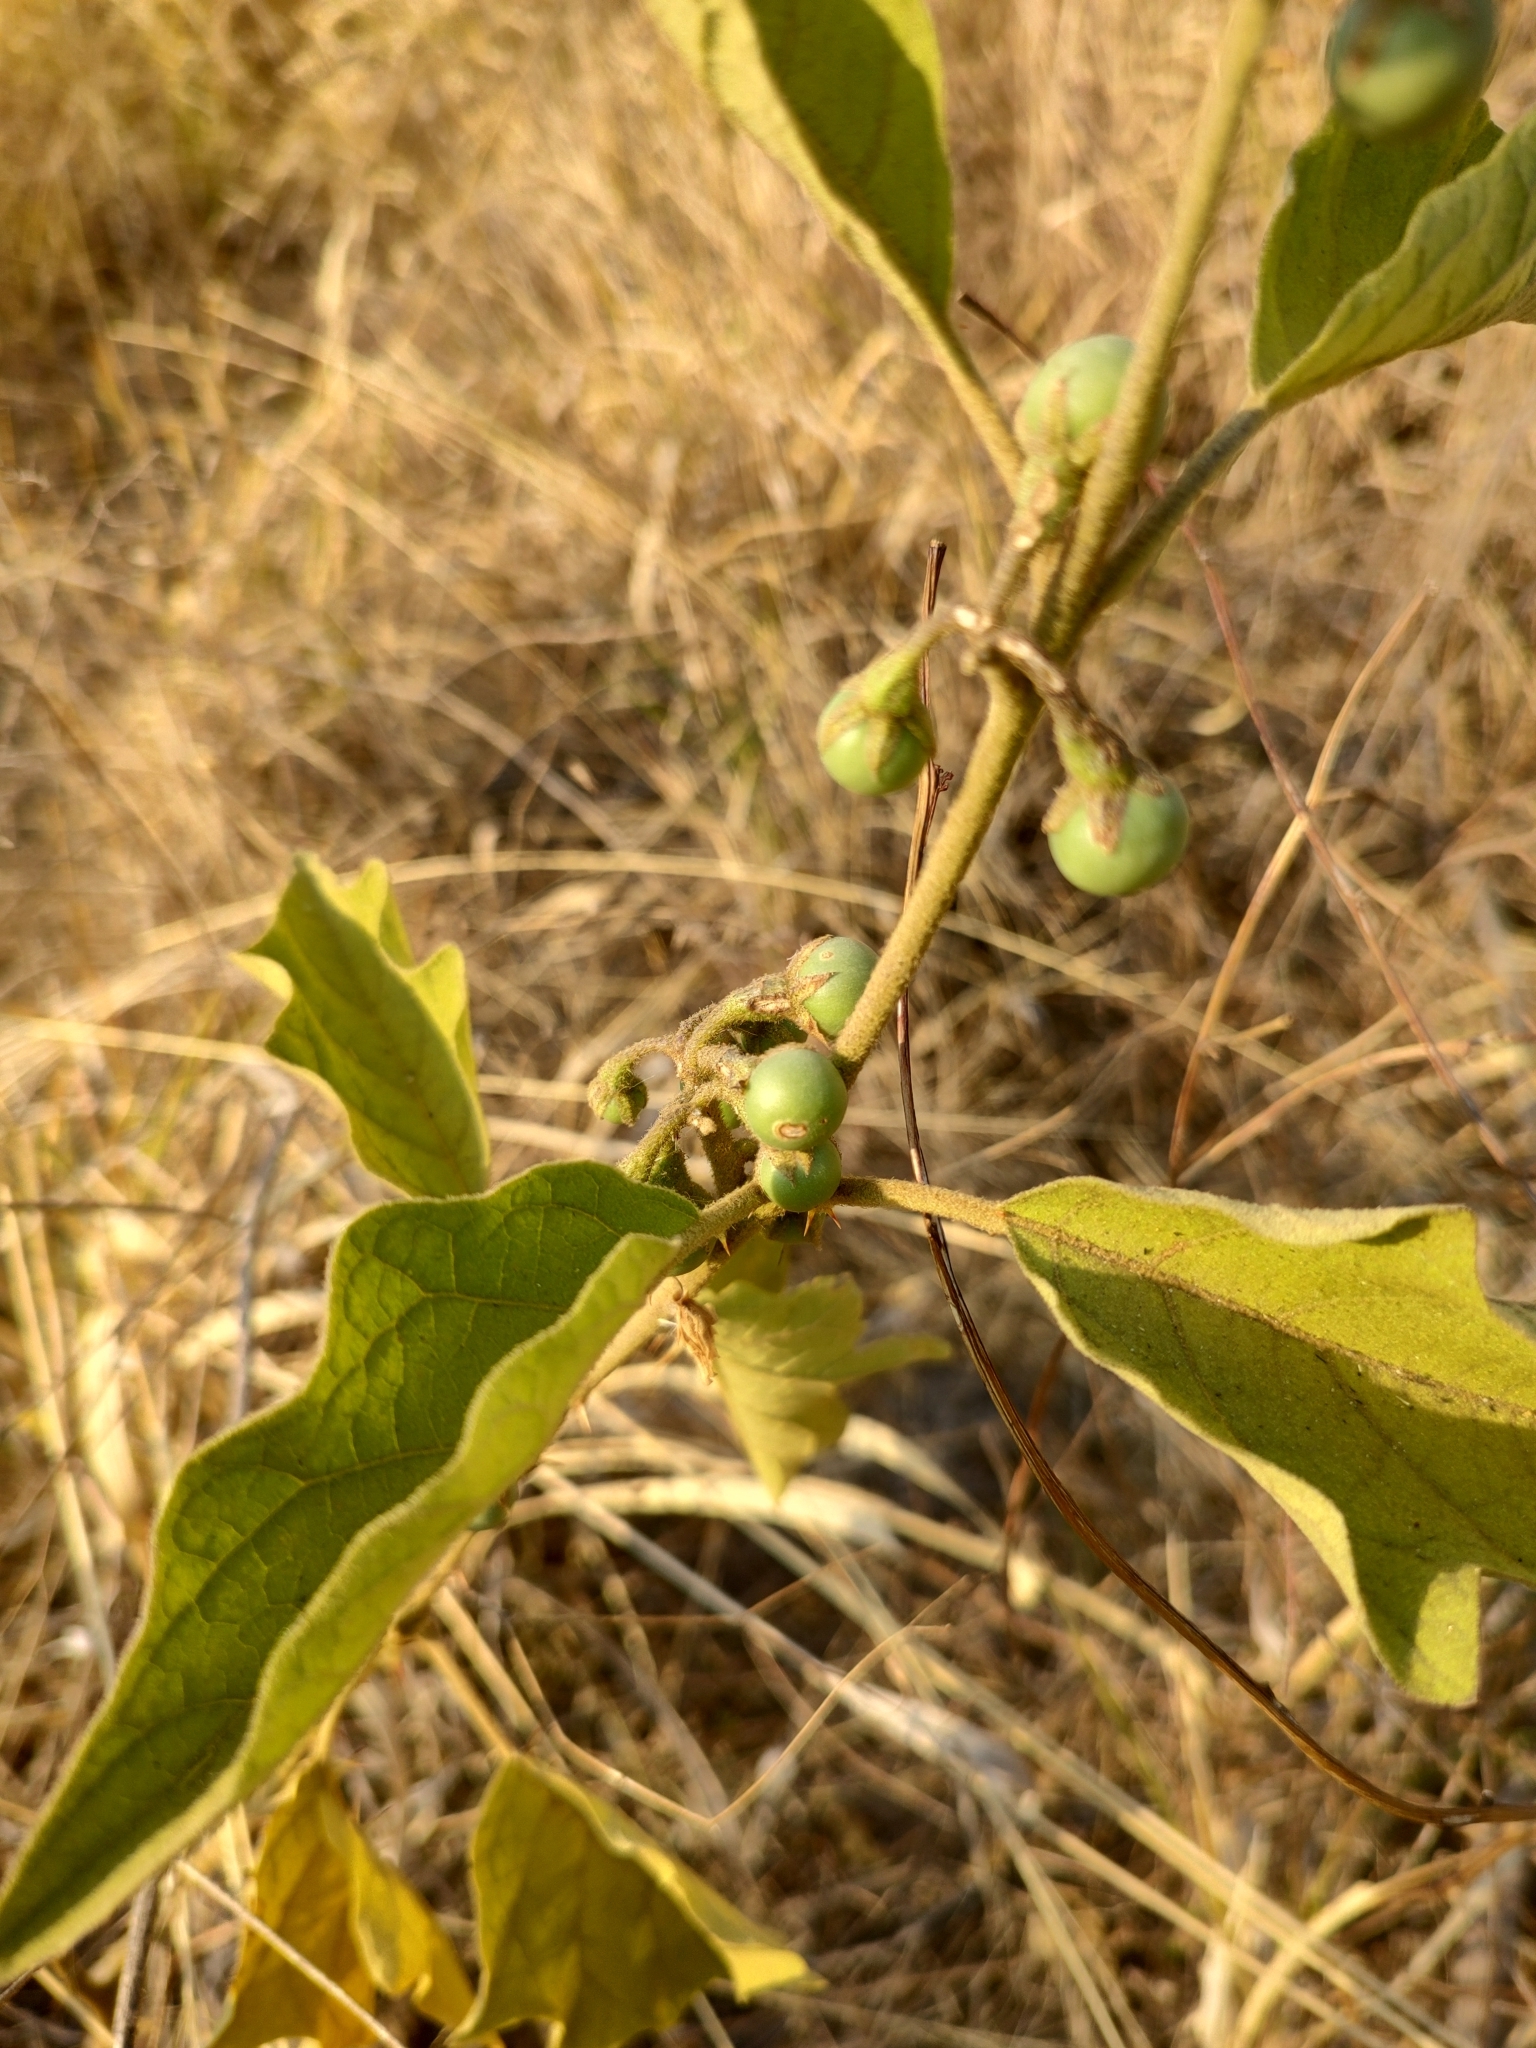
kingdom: Plantae
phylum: Tracheophyta
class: Magnoliopsida
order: Solanales
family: Solanaceae
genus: Solanum
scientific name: Solanum ferrugineum
